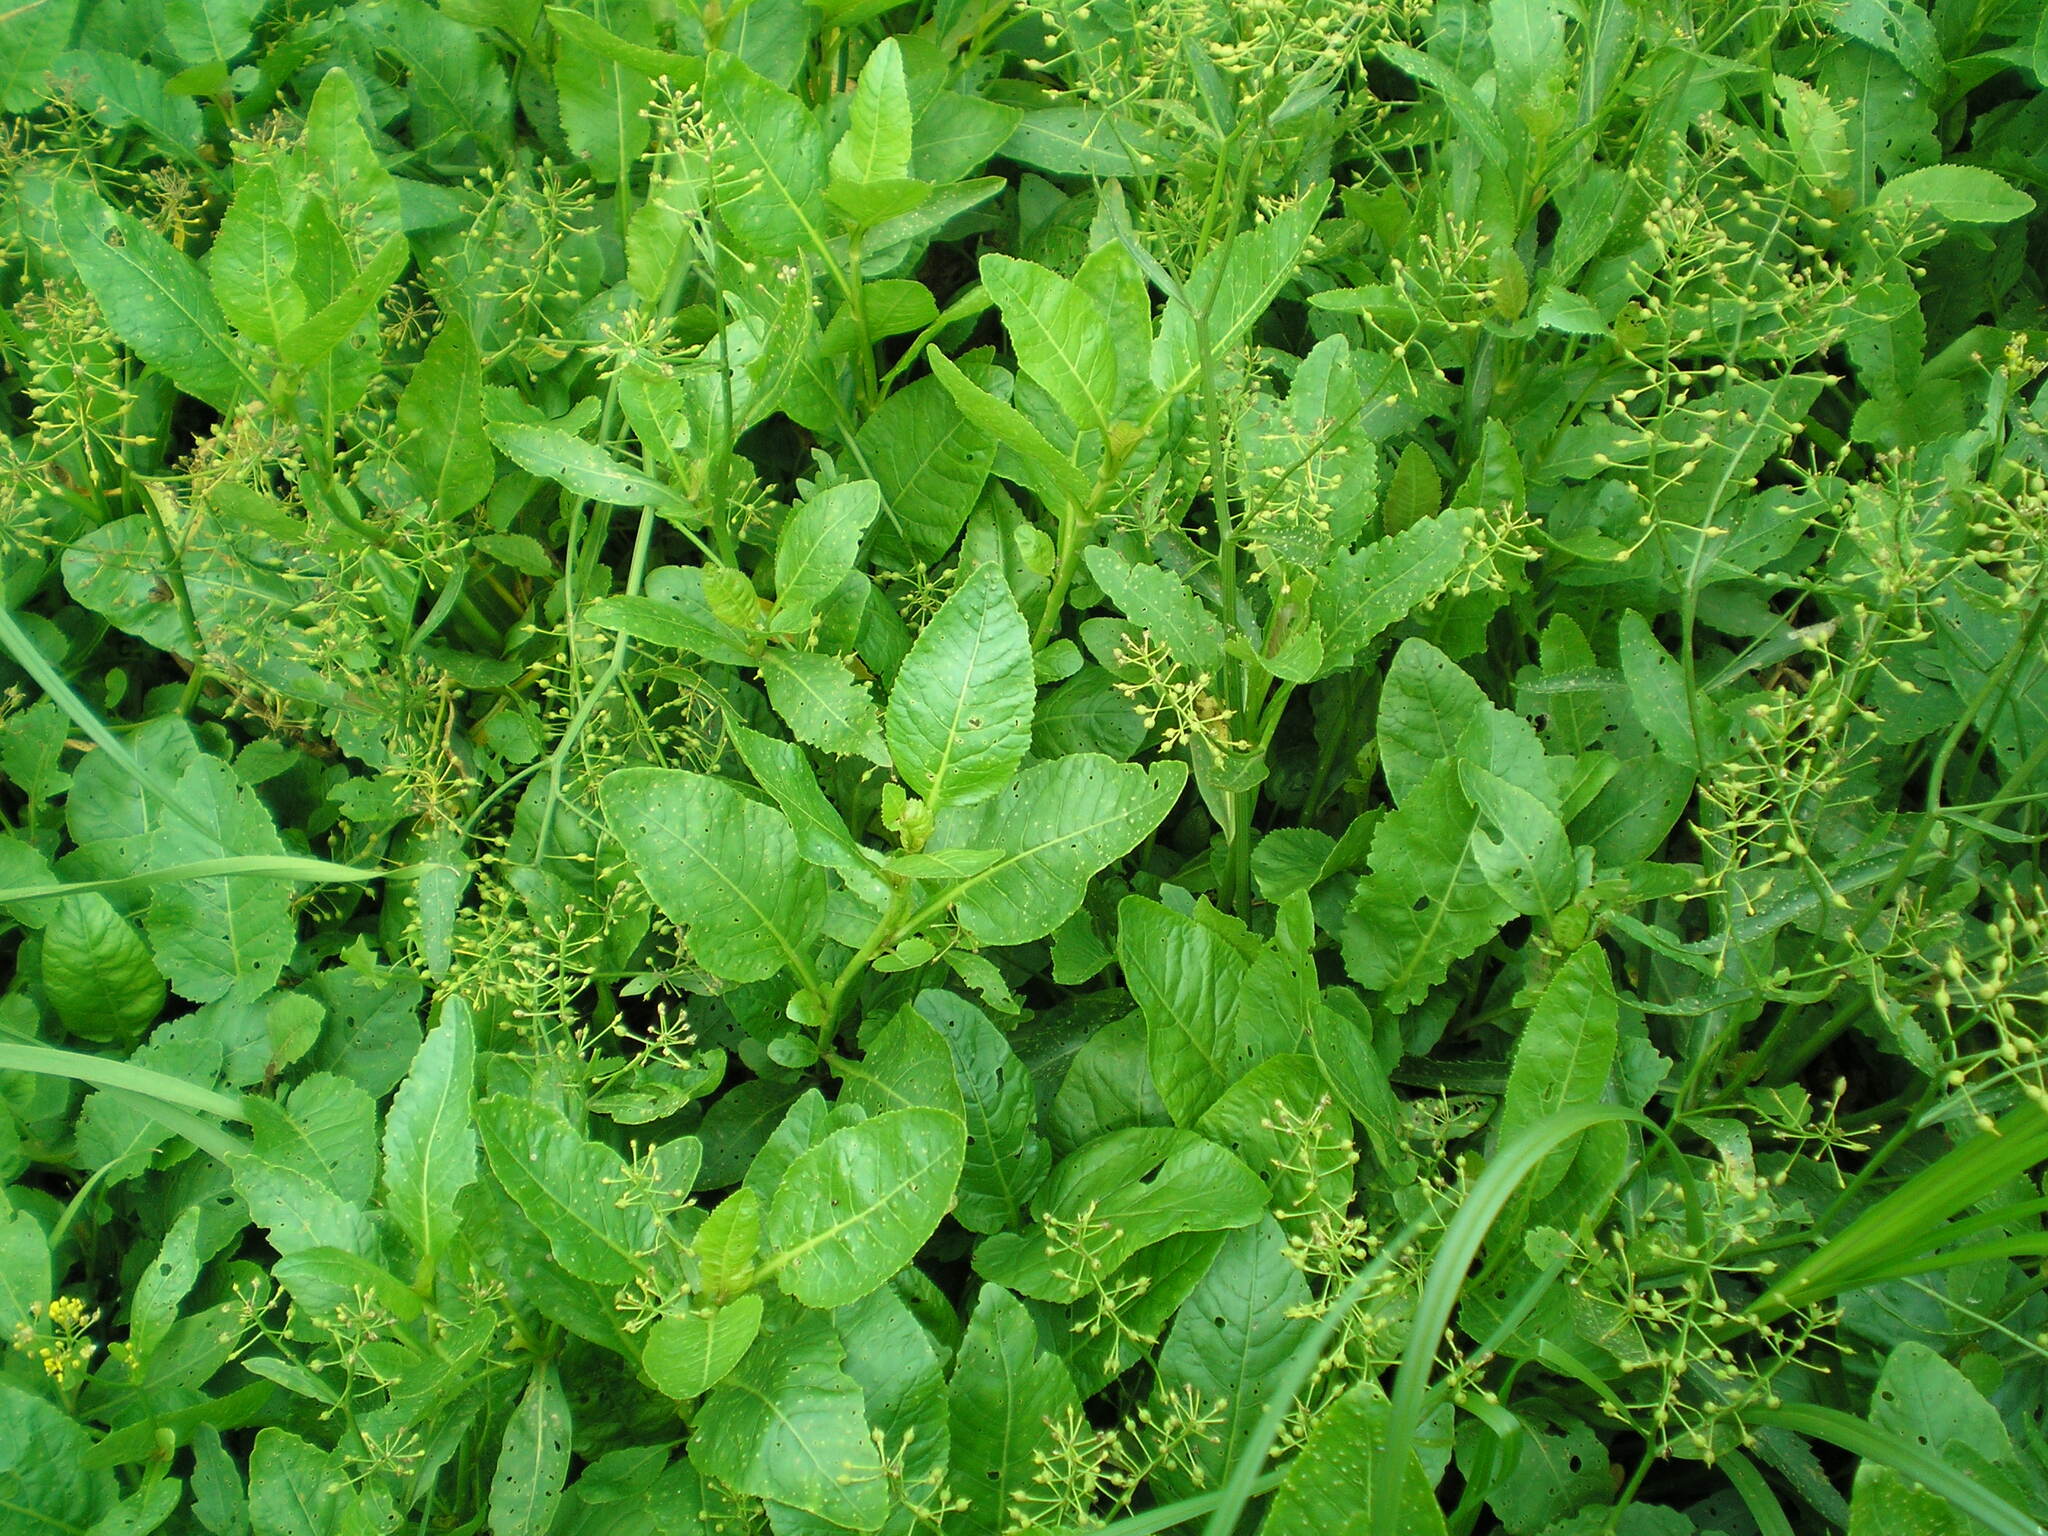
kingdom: Plantae
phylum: Tracheophyta
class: Magnoliopsida
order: Brassicales
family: Brassicaceae
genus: Rorippa
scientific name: Rorippa amphibia
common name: Great yellow-cress
